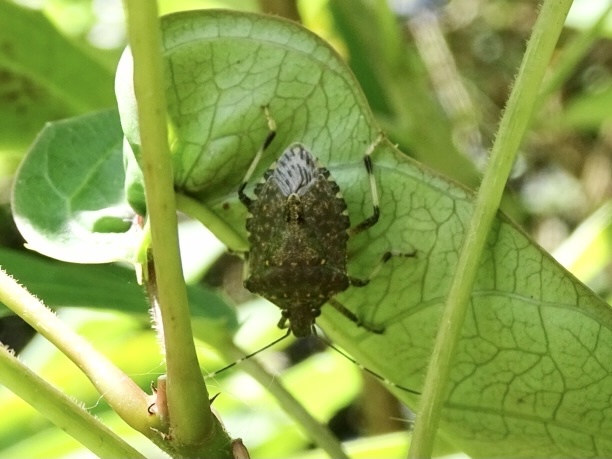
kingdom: Animalia
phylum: Arthropoda
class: Insecta
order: Hemiptera
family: Pentatomidae
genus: Halyomorpha
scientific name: Halyomorpha halys
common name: Brown marmorated stink bug
